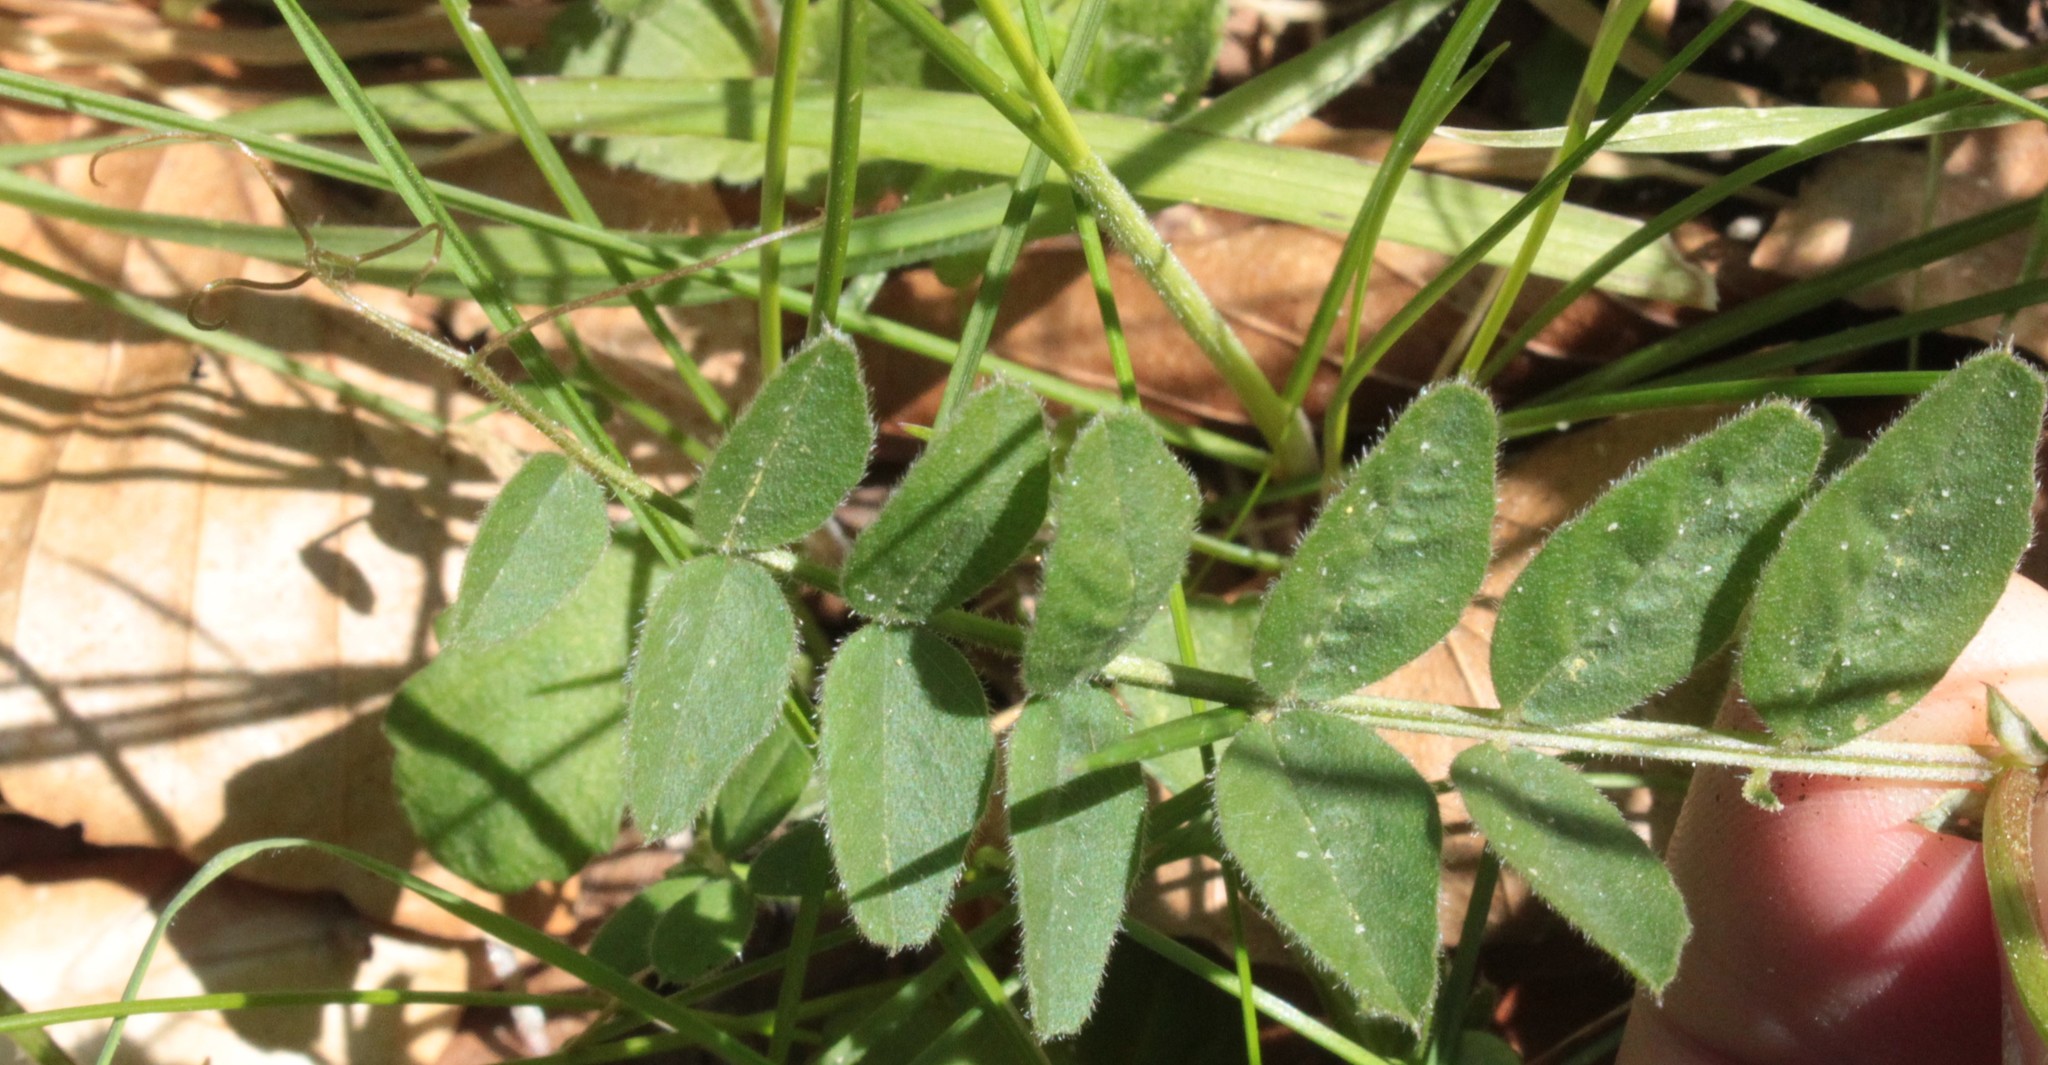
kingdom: Plantae
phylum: Tracheophyta
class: Magnoliopsida
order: Fabales
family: Fabaceae
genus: Vicia
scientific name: Vicia sepium
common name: Bush vetch
